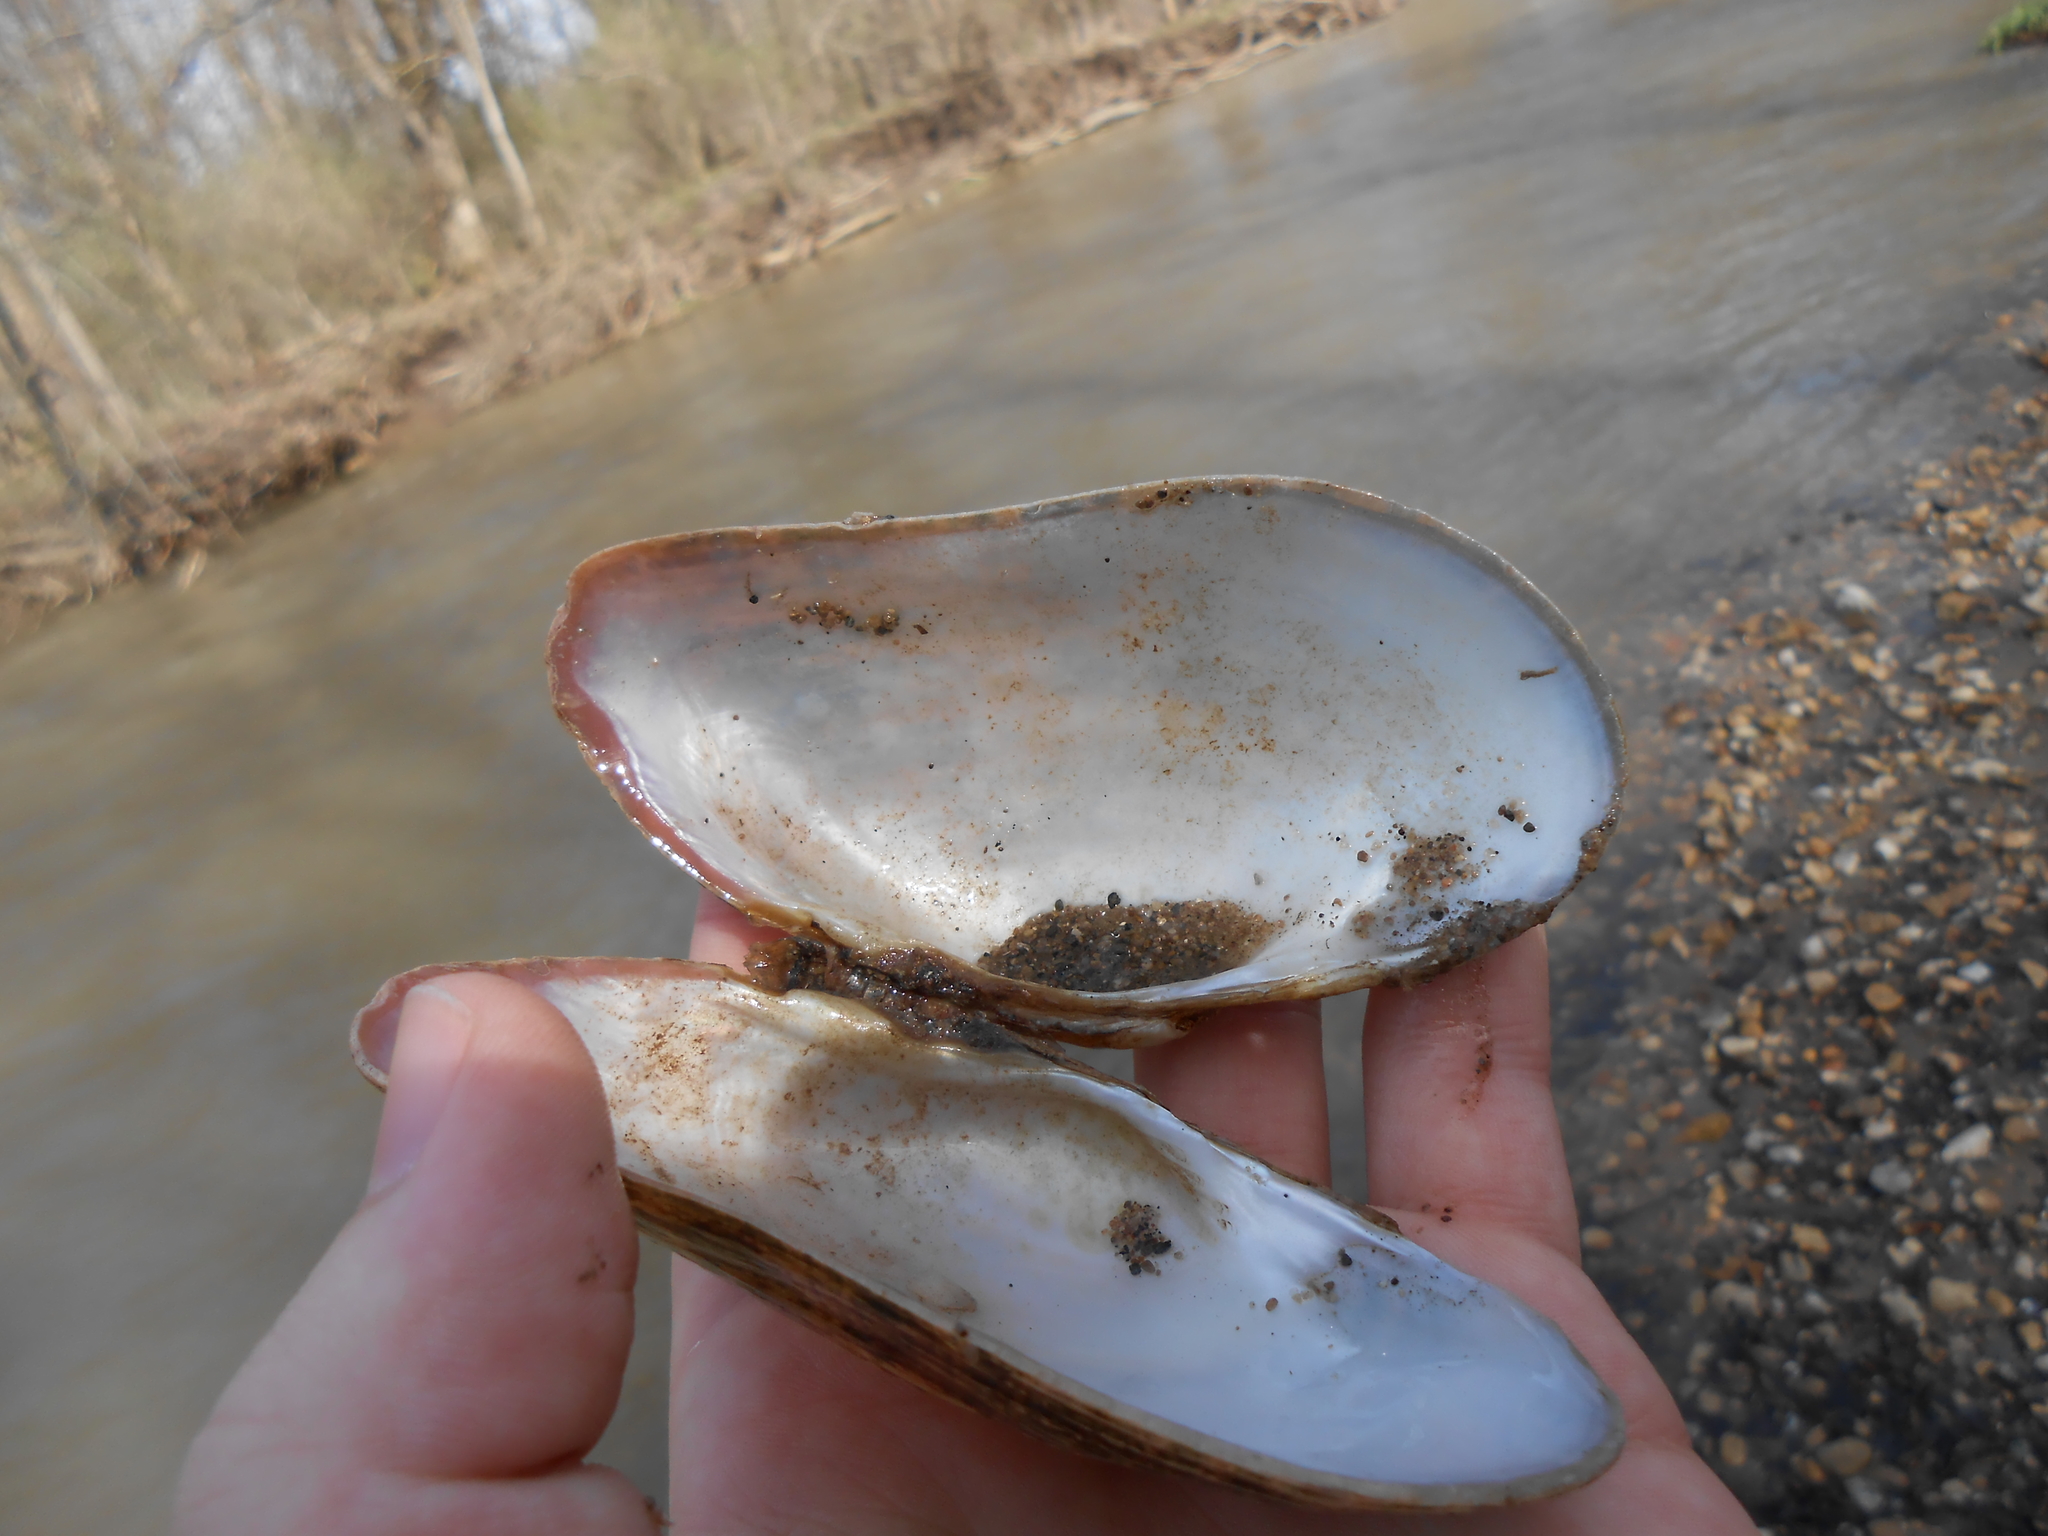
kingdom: Animalia
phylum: Mollusca
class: Bivalvia
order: Unionida
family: Unionidae
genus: Alasmidonta
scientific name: Alasmidonta marginata
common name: Elktoe
